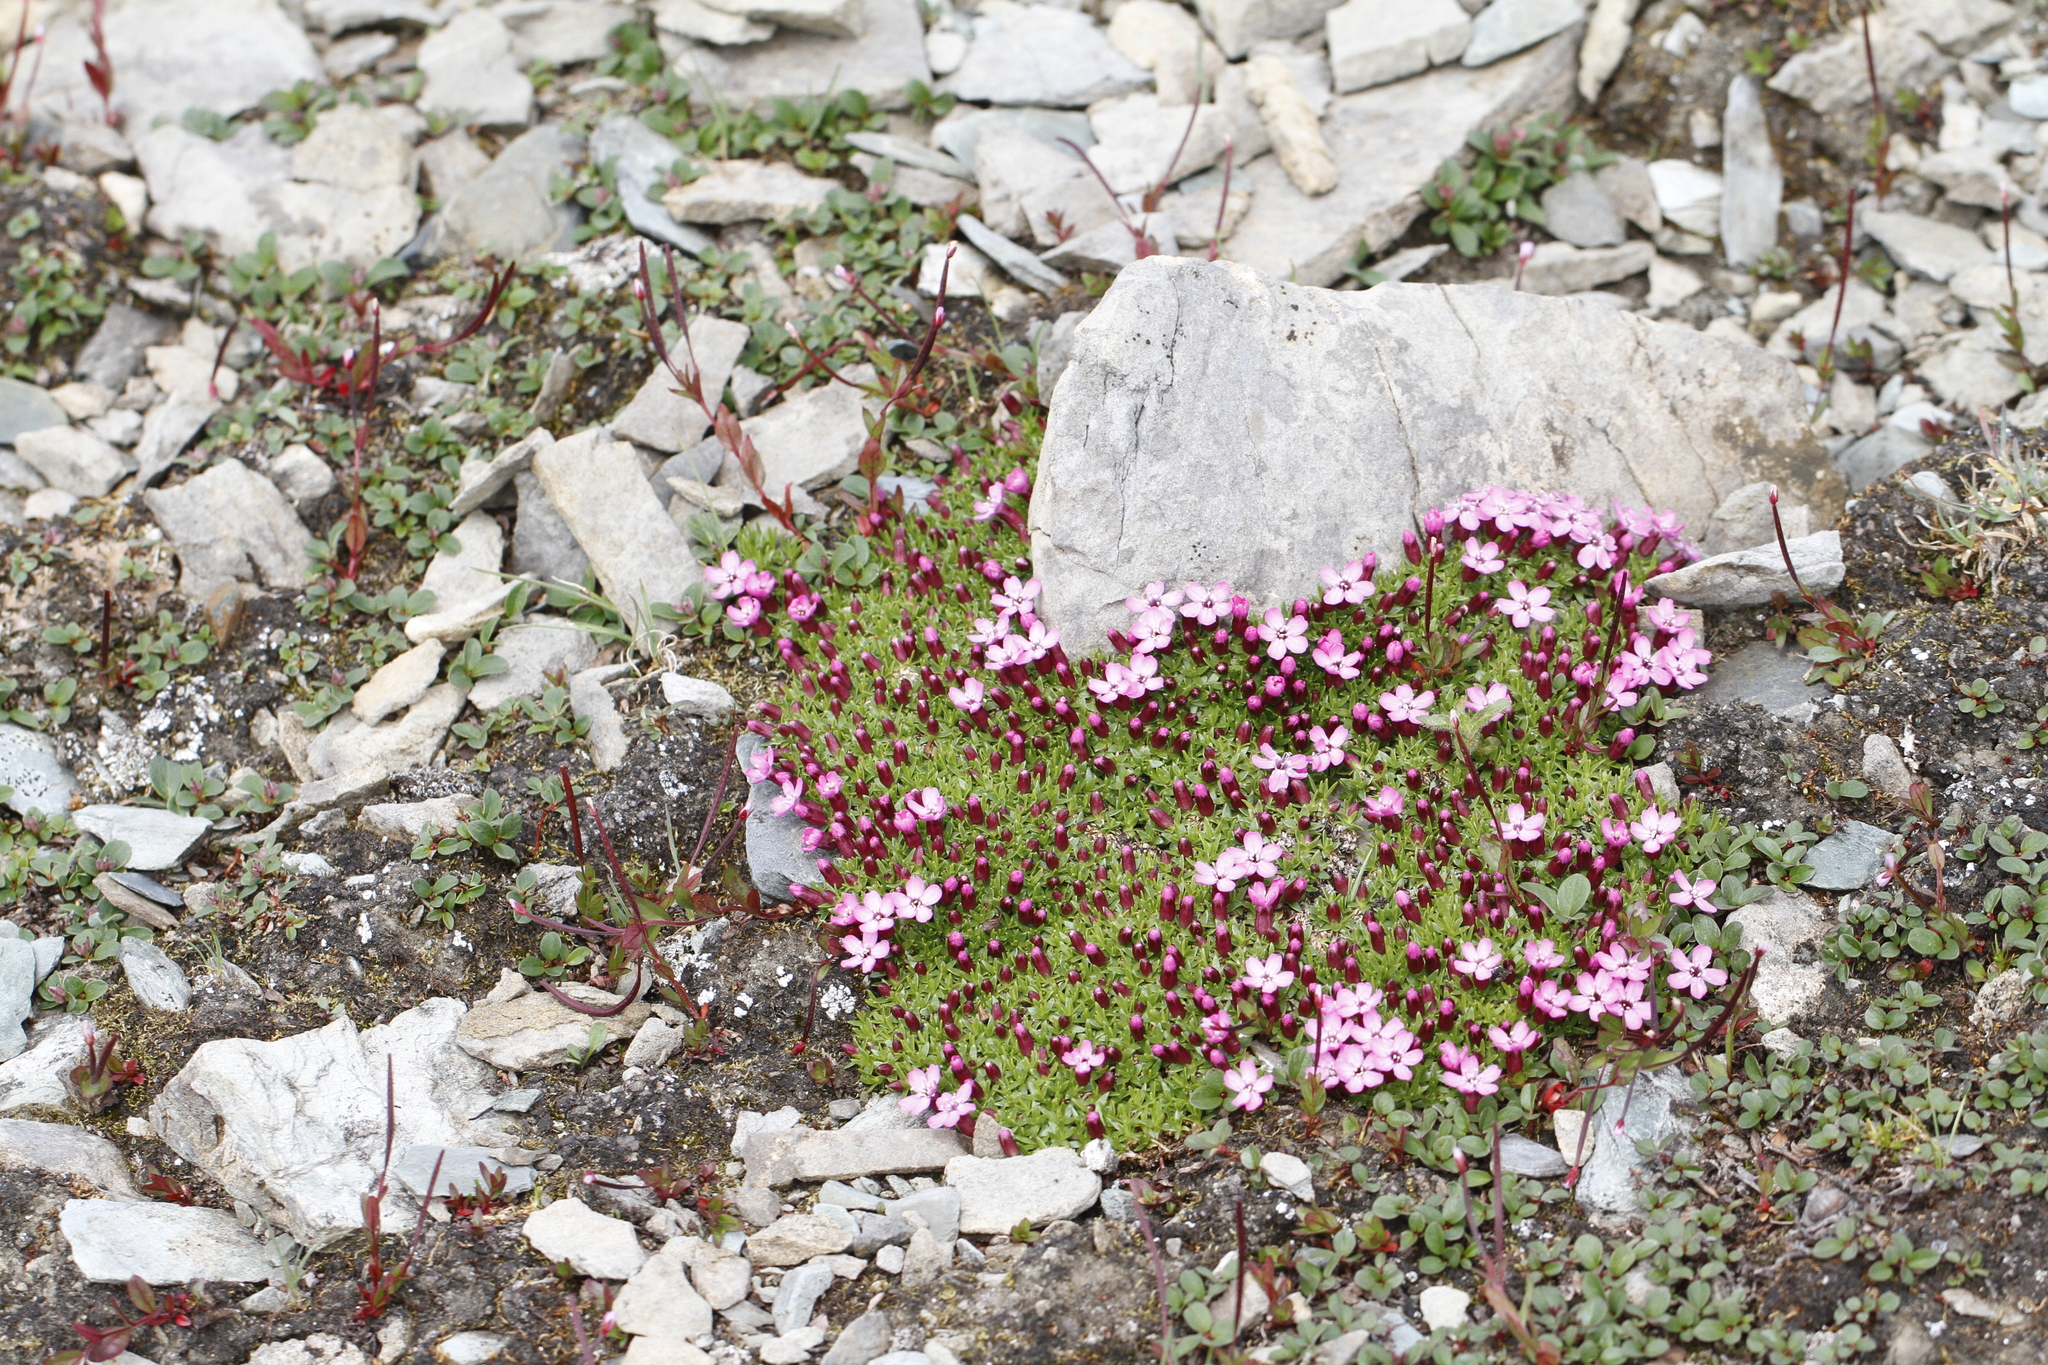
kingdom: Plantae
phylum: Tracheophyta
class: Magnoliopsida
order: Caryophyllales
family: Caryophyllaceae
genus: Silene
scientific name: Silene acaulis
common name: Moss campion
